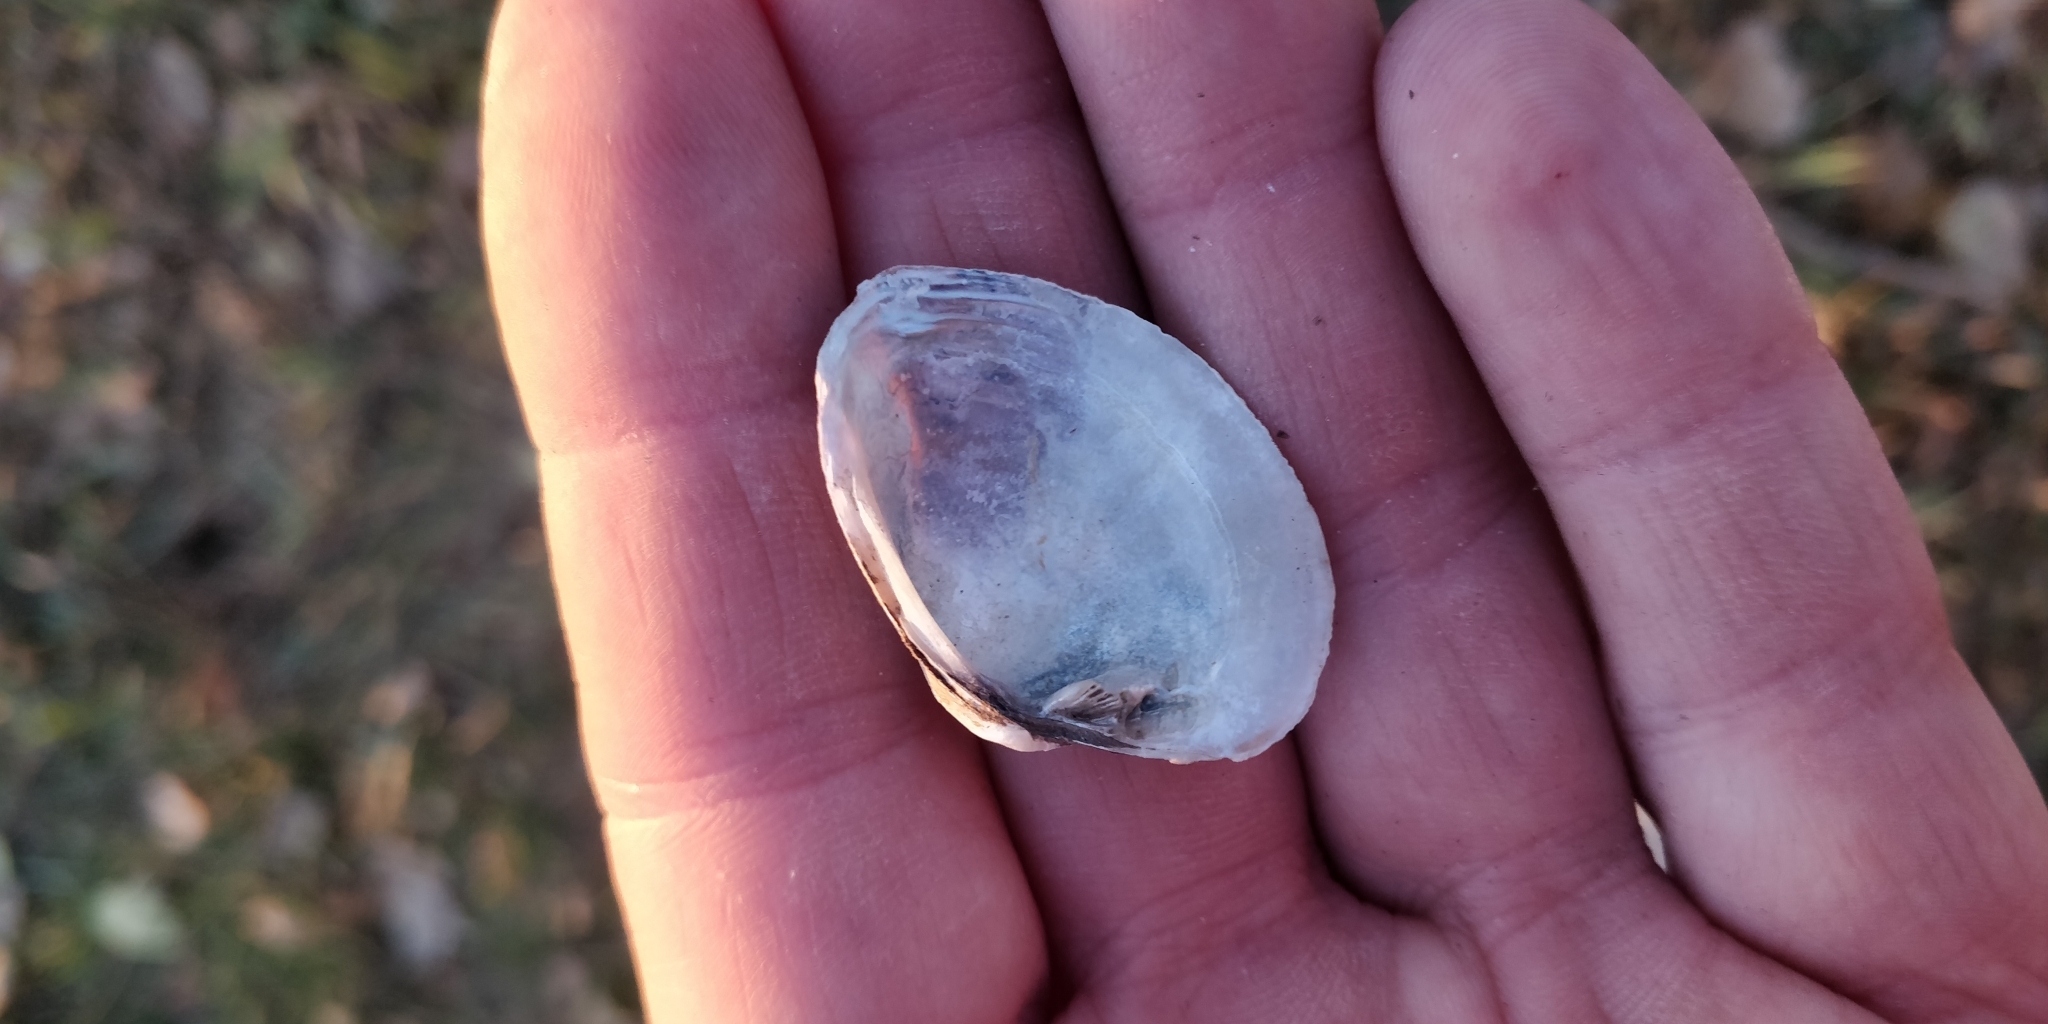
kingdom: Animalia
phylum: Mollusca
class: Bivalvia
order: Unionida
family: Unionidae
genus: Truncilla
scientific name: Truncilla donaciformis
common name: Fawnsfoot
